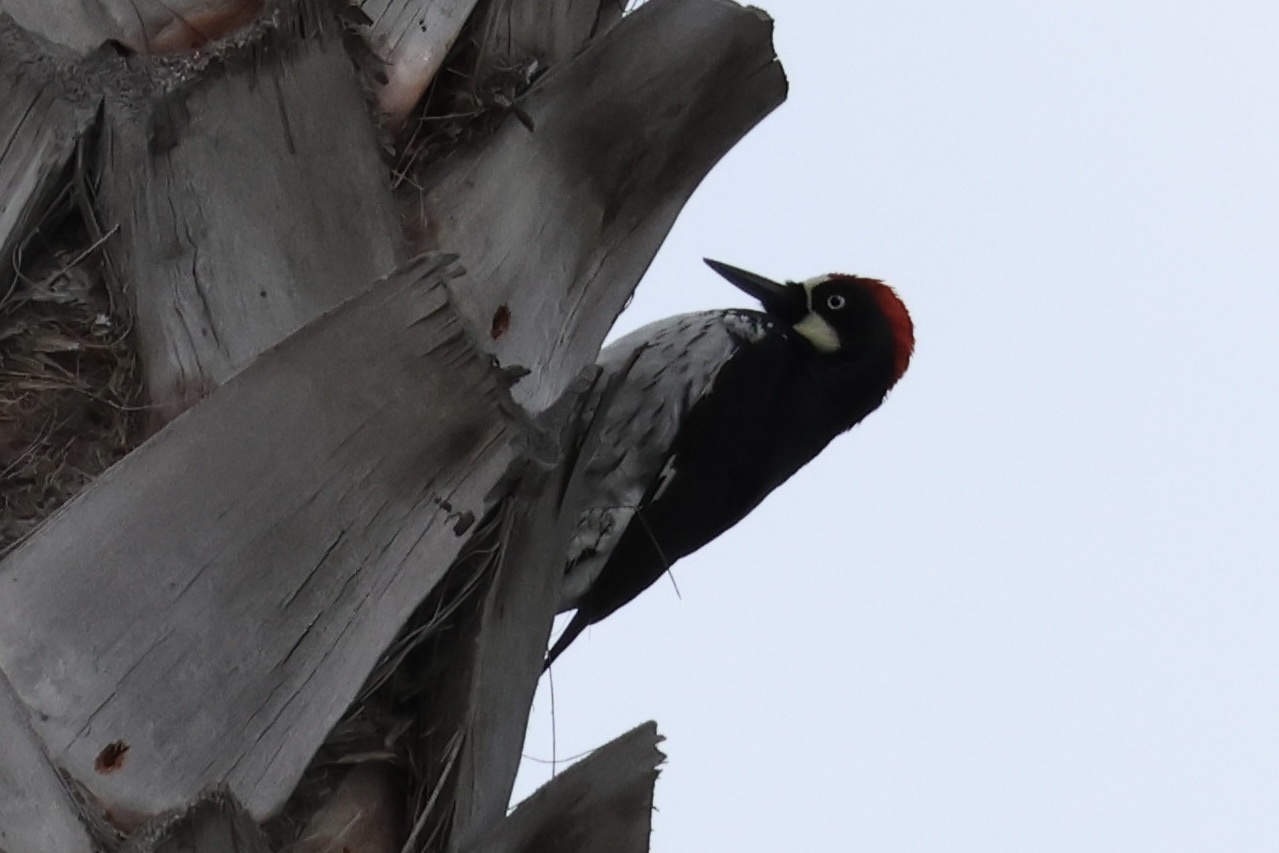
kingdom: Animalia
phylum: Chordata
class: Aves
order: Piciformes
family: Picidae
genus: Melanerpes
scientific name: Melanerpes formicivorus
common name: Acorn woodpecker
